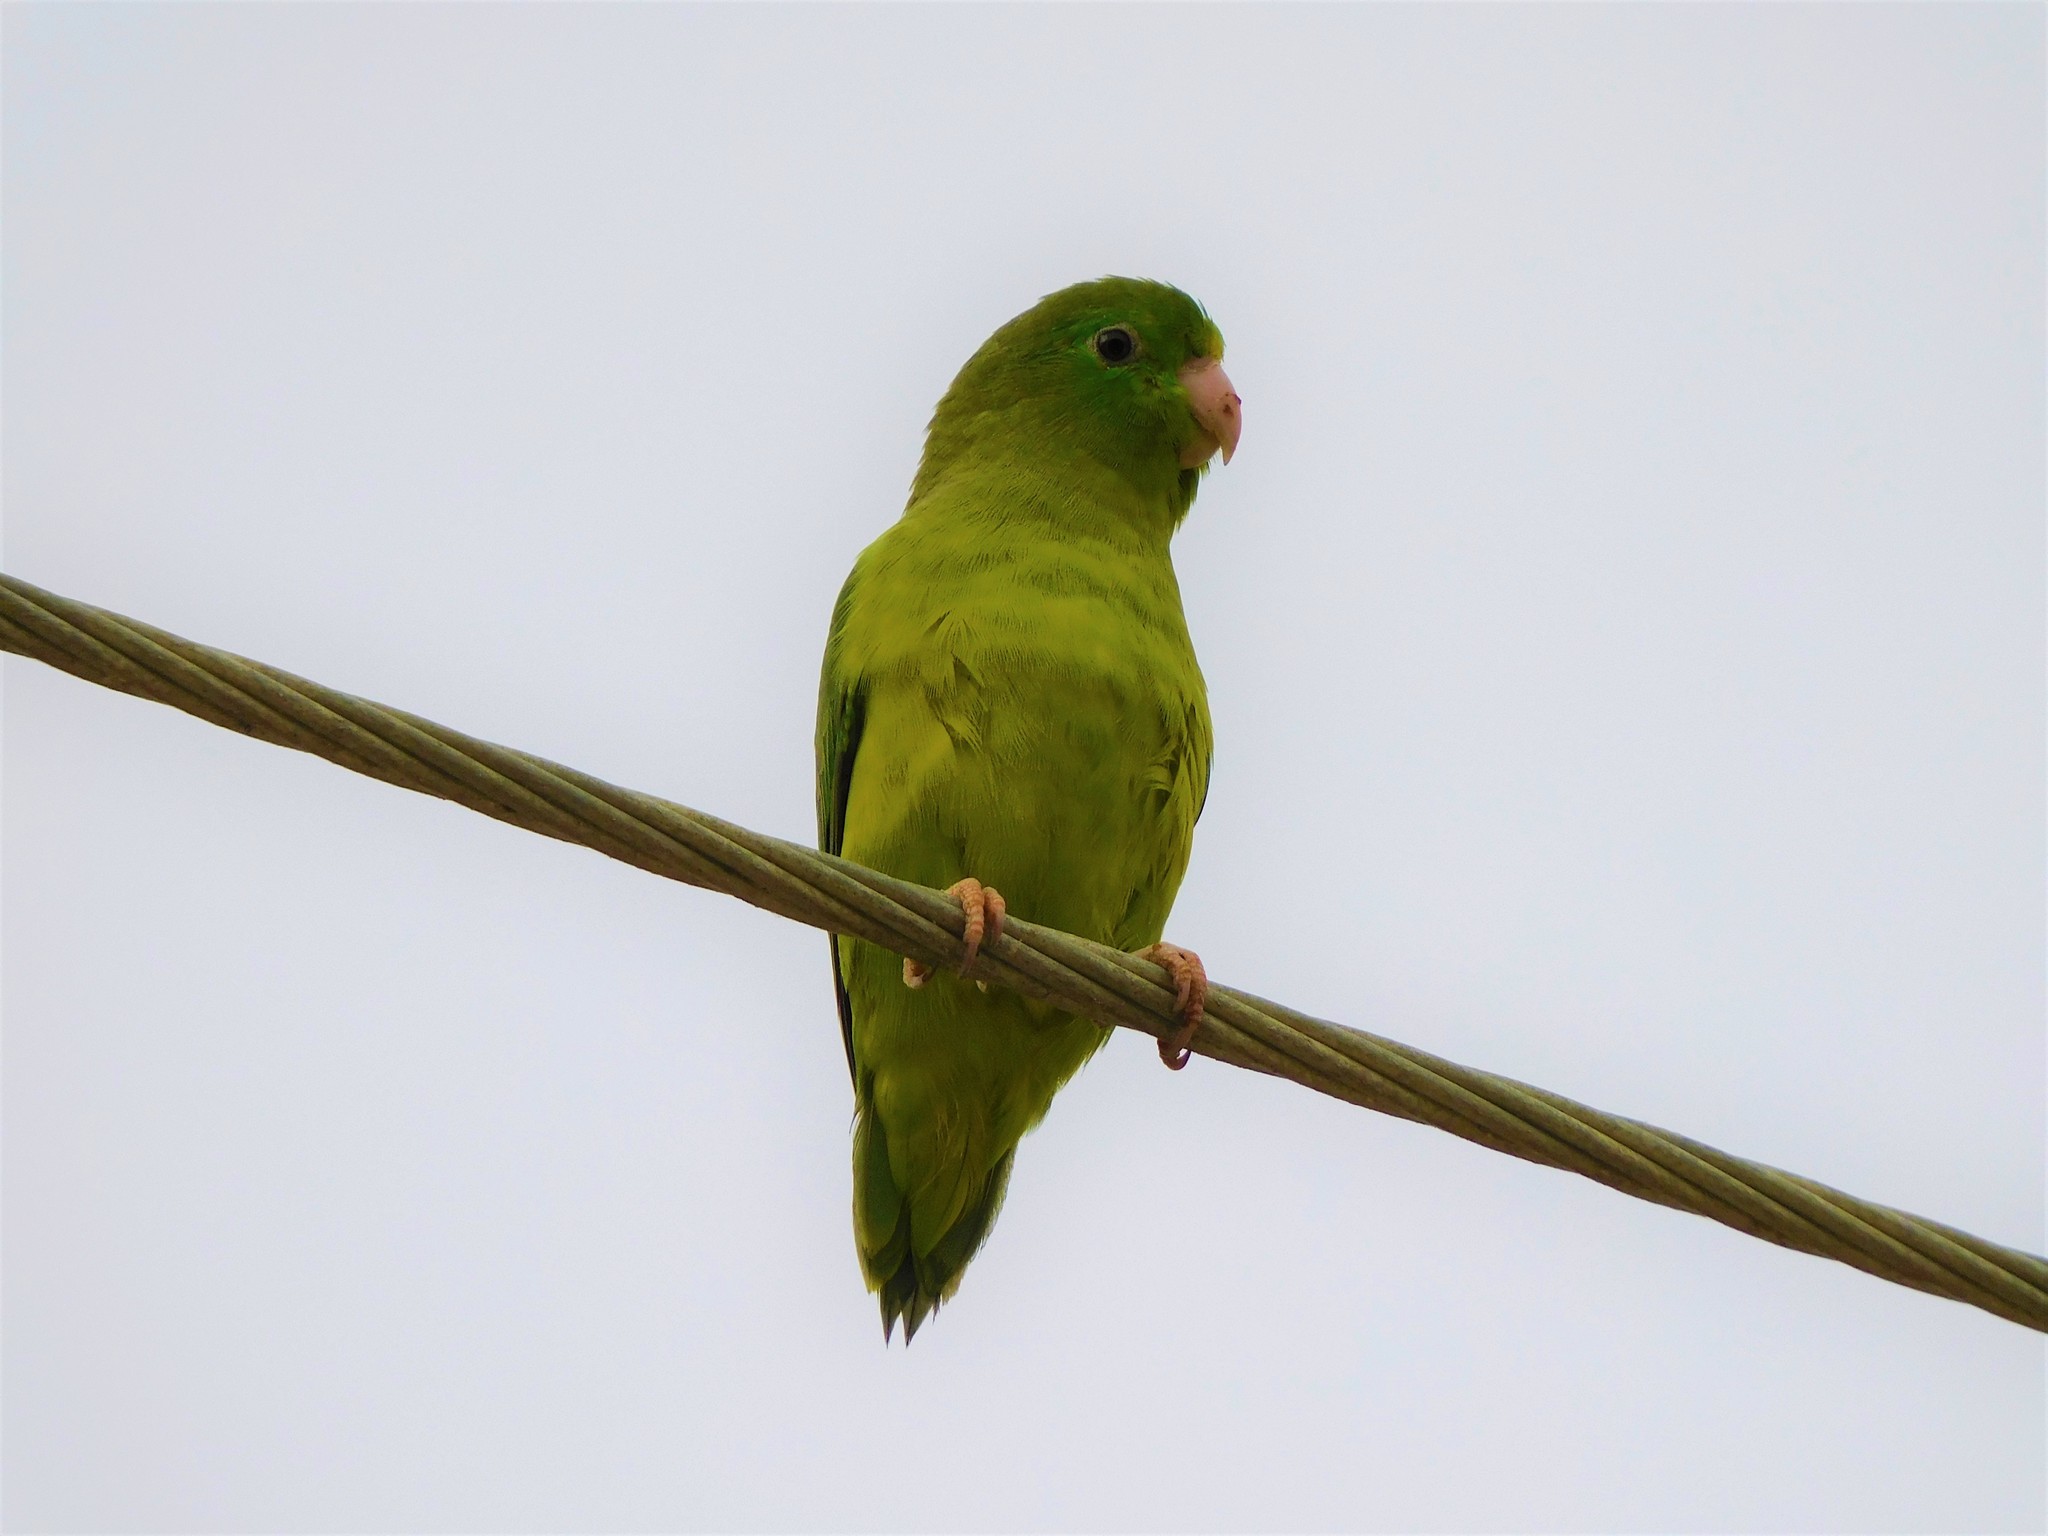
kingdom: Animalia
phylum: Chordata
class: Aves
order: Psittaciformes
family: Psittacidae
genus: Forpus
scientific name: Forpus conspicillatus
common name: Spectacled parrotlet
